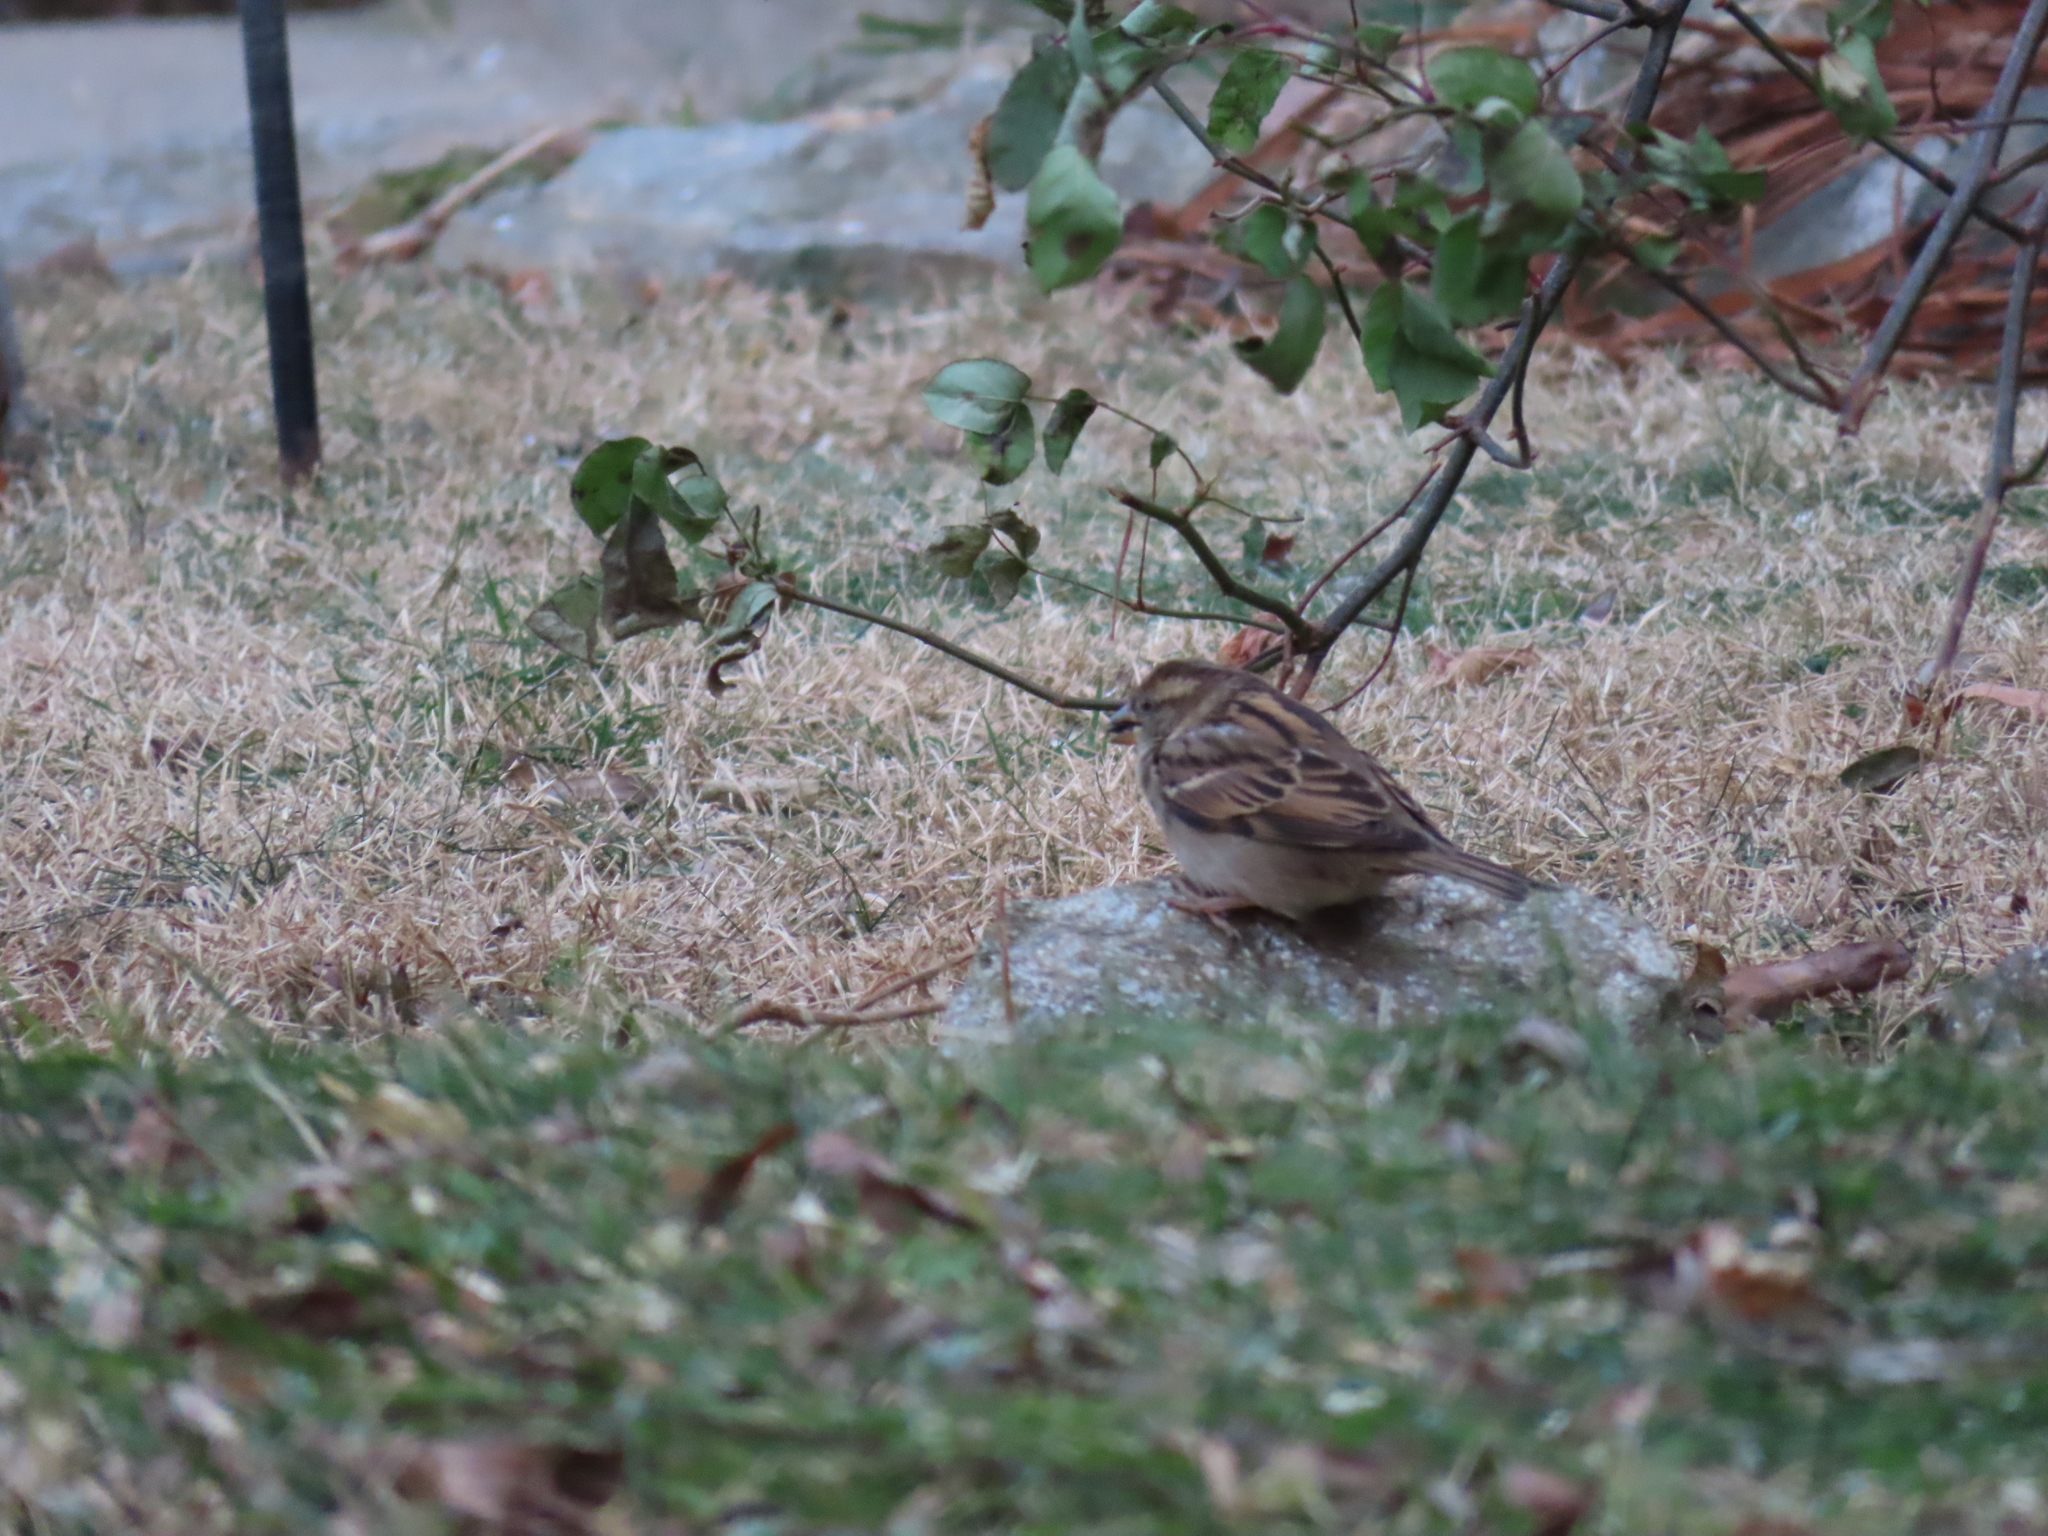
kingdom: Animalia
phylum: Chordata
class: Aves
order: Passeriformes
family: Passeridae
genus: Passer
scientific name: Passer domesticus
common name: House sparrow
